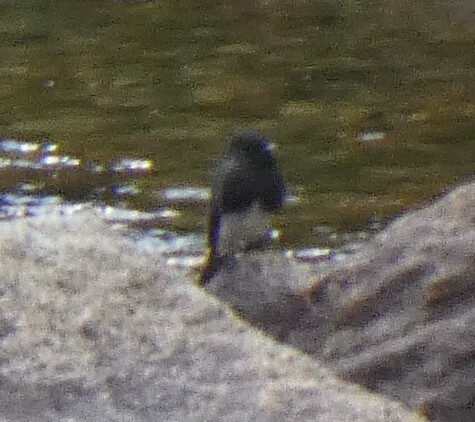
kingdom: Animalia
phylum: Chordata
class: Aves
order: Passeriformes
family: Tyrannidae
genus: Sayornis
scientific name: Sayornis nigricans
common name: Black phoebe
